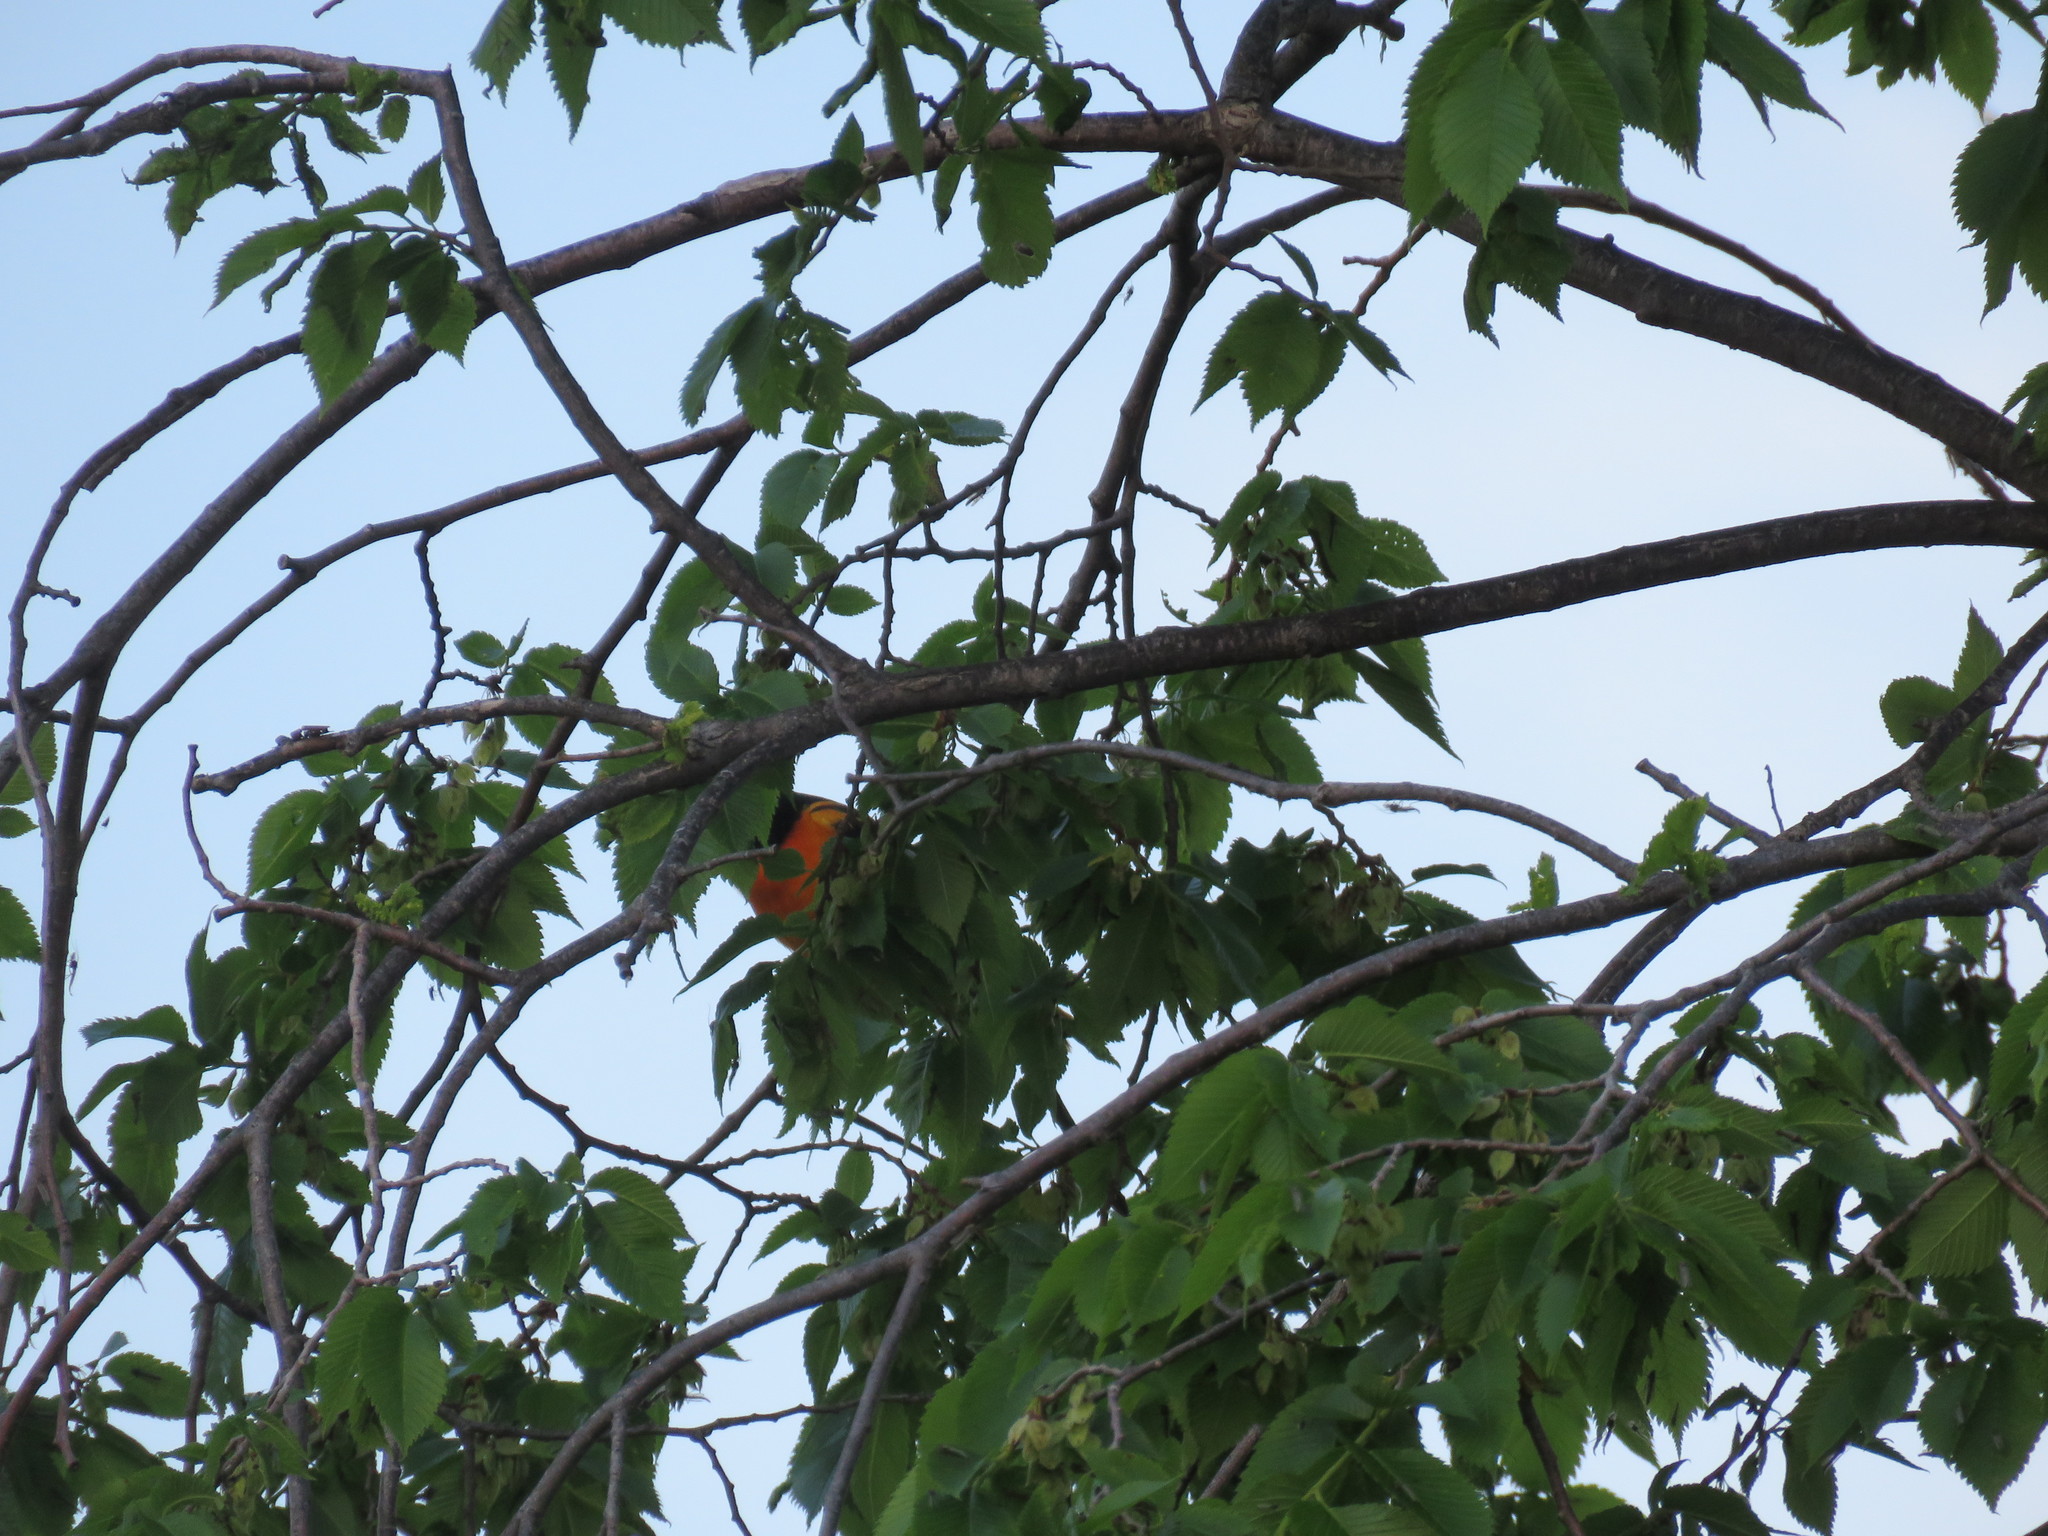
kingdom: Animalia
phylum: Chordata
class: Aves
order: Passeriformes
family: Icteridae
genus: Icterus
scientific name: Icterus galbula
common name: Baltimore oriole
